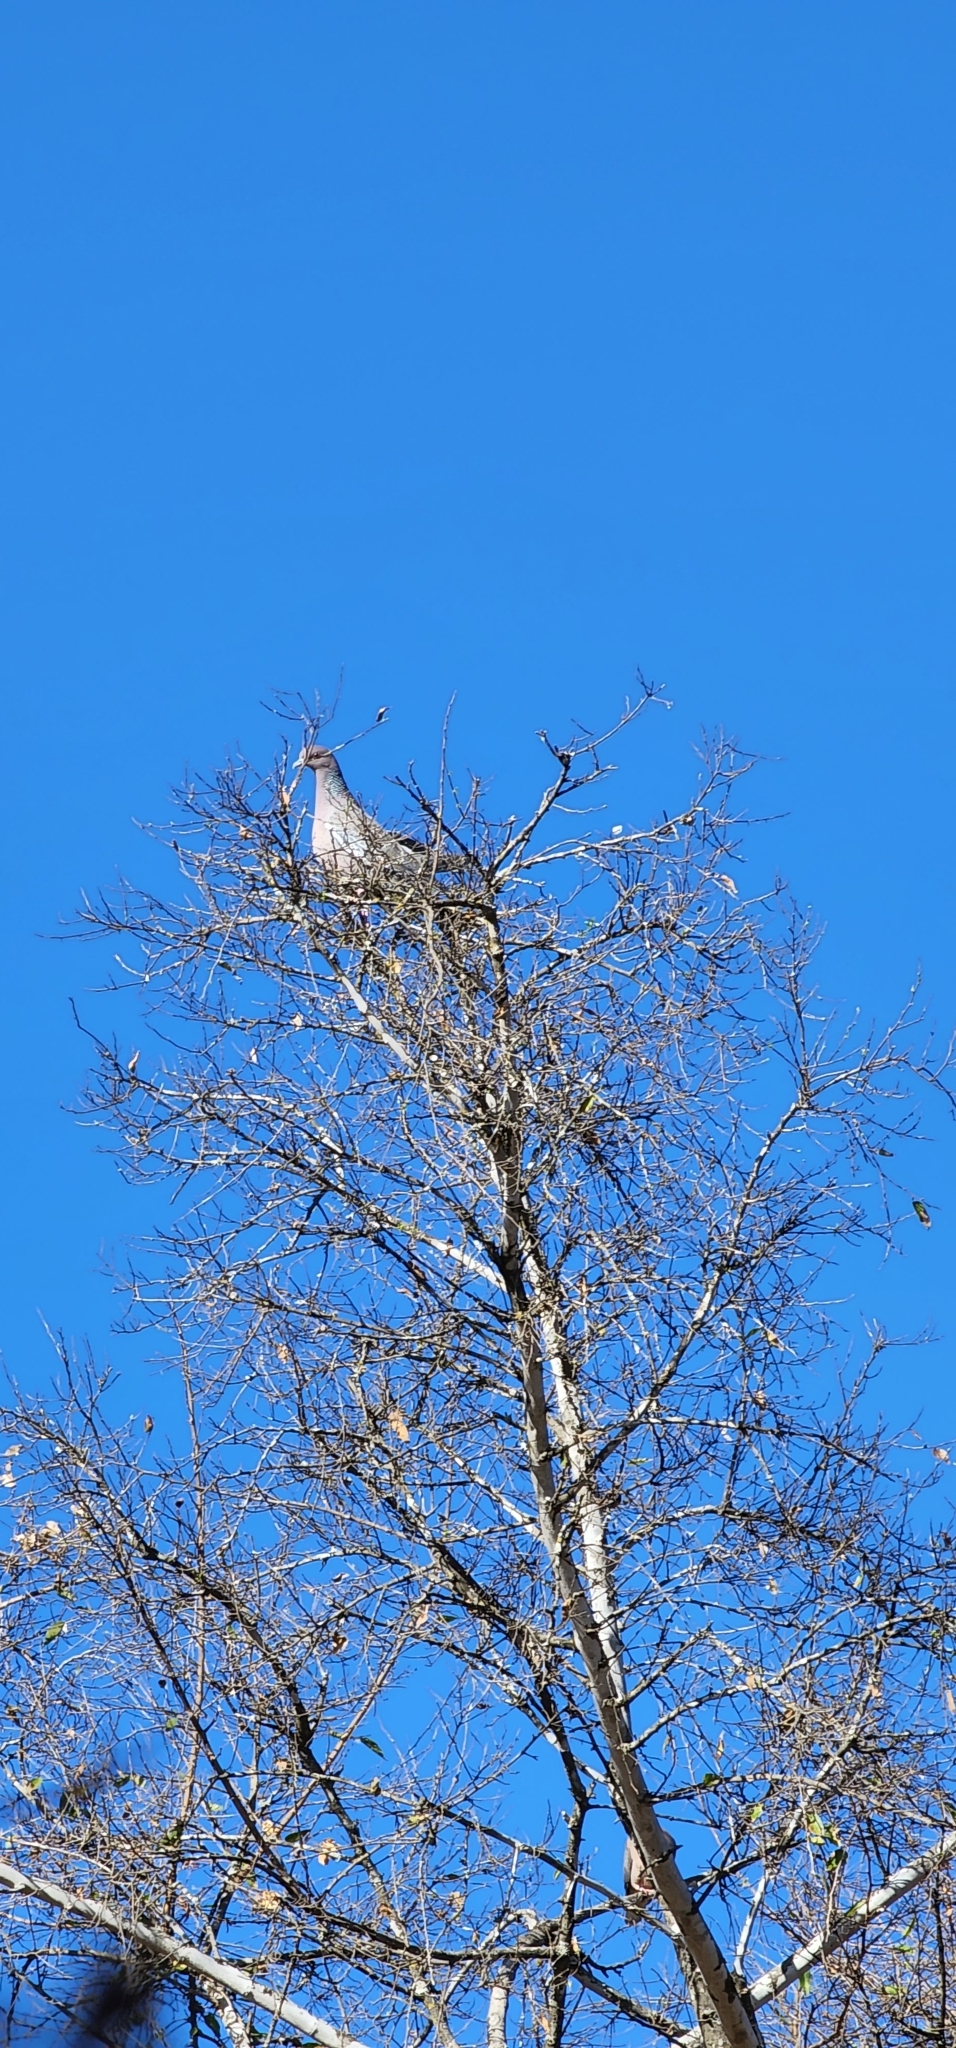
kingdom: Animalia
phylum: Chordata
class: Aves
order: Columbiformes
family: Columbidae
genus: Patagioenas
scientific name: Patagioenas picazuro
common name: Picazuro pigeon
